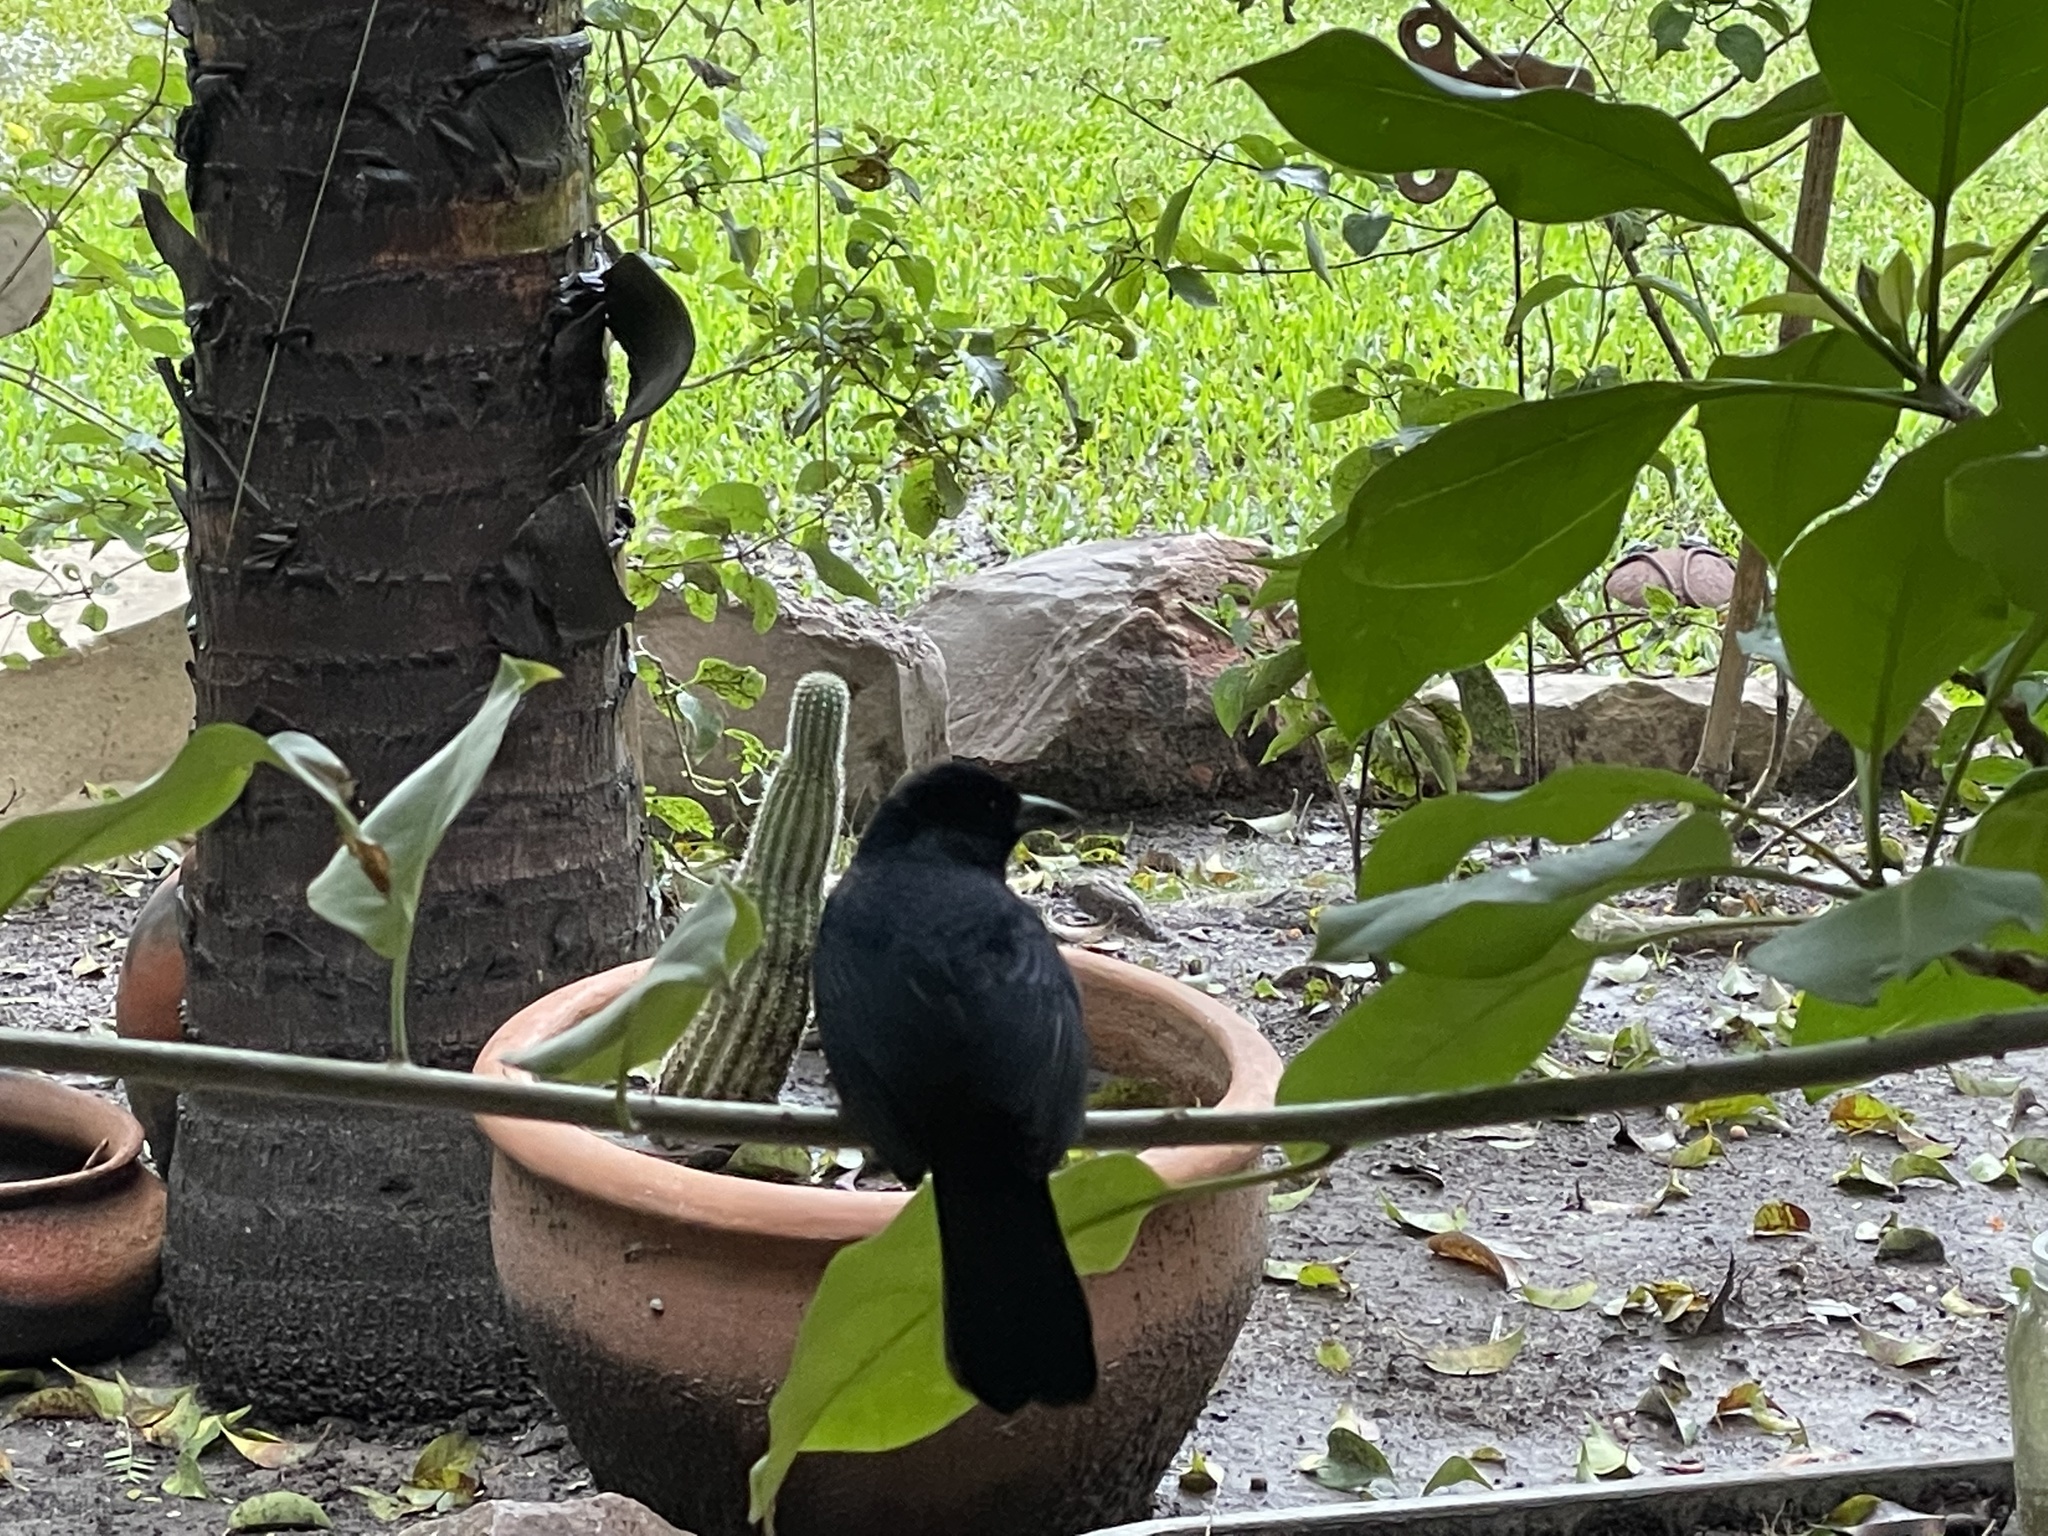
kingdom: Animalia
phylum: Chordata
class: Aves
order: Passeriformes
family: Thraupidae
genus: Tachyphonus
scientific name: Tachyphonus rufus
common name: White-lined tanager
